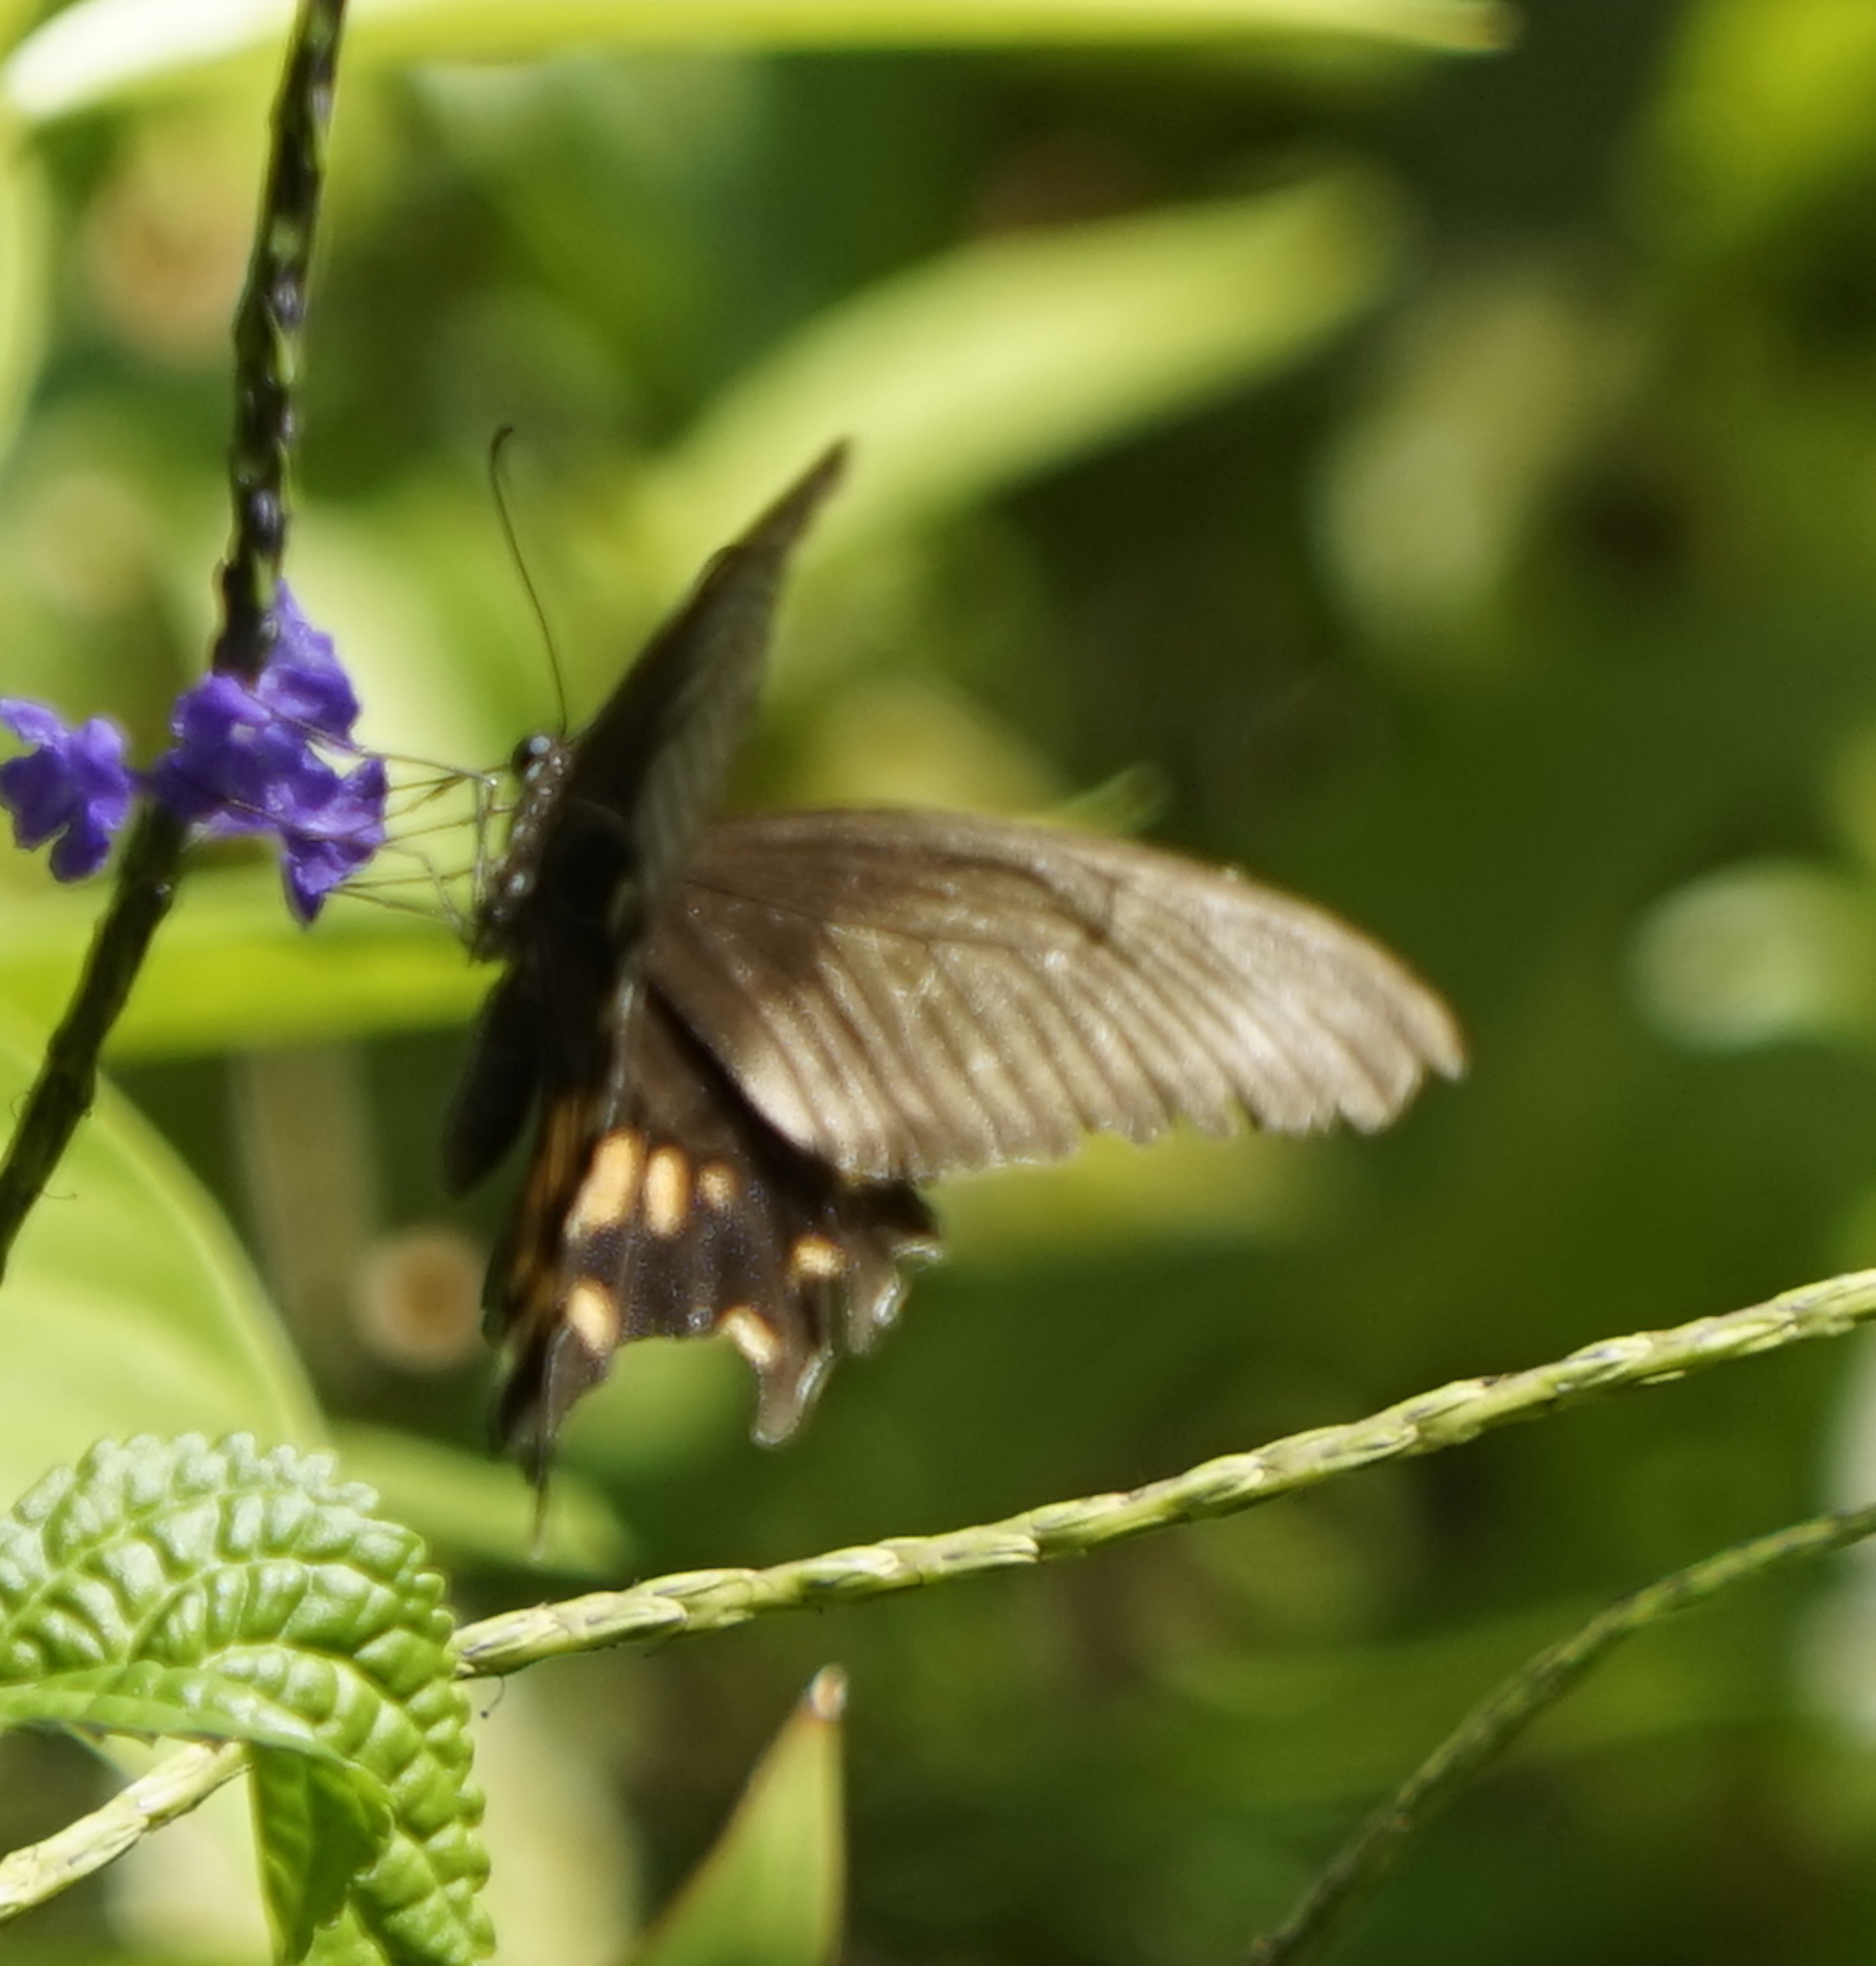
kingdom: Animalia
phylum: Arthropoda
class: Insecta
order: Lepidoptera
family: Papilionidae
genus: Papilio
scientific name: Papilio polytes
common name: Common mormon
